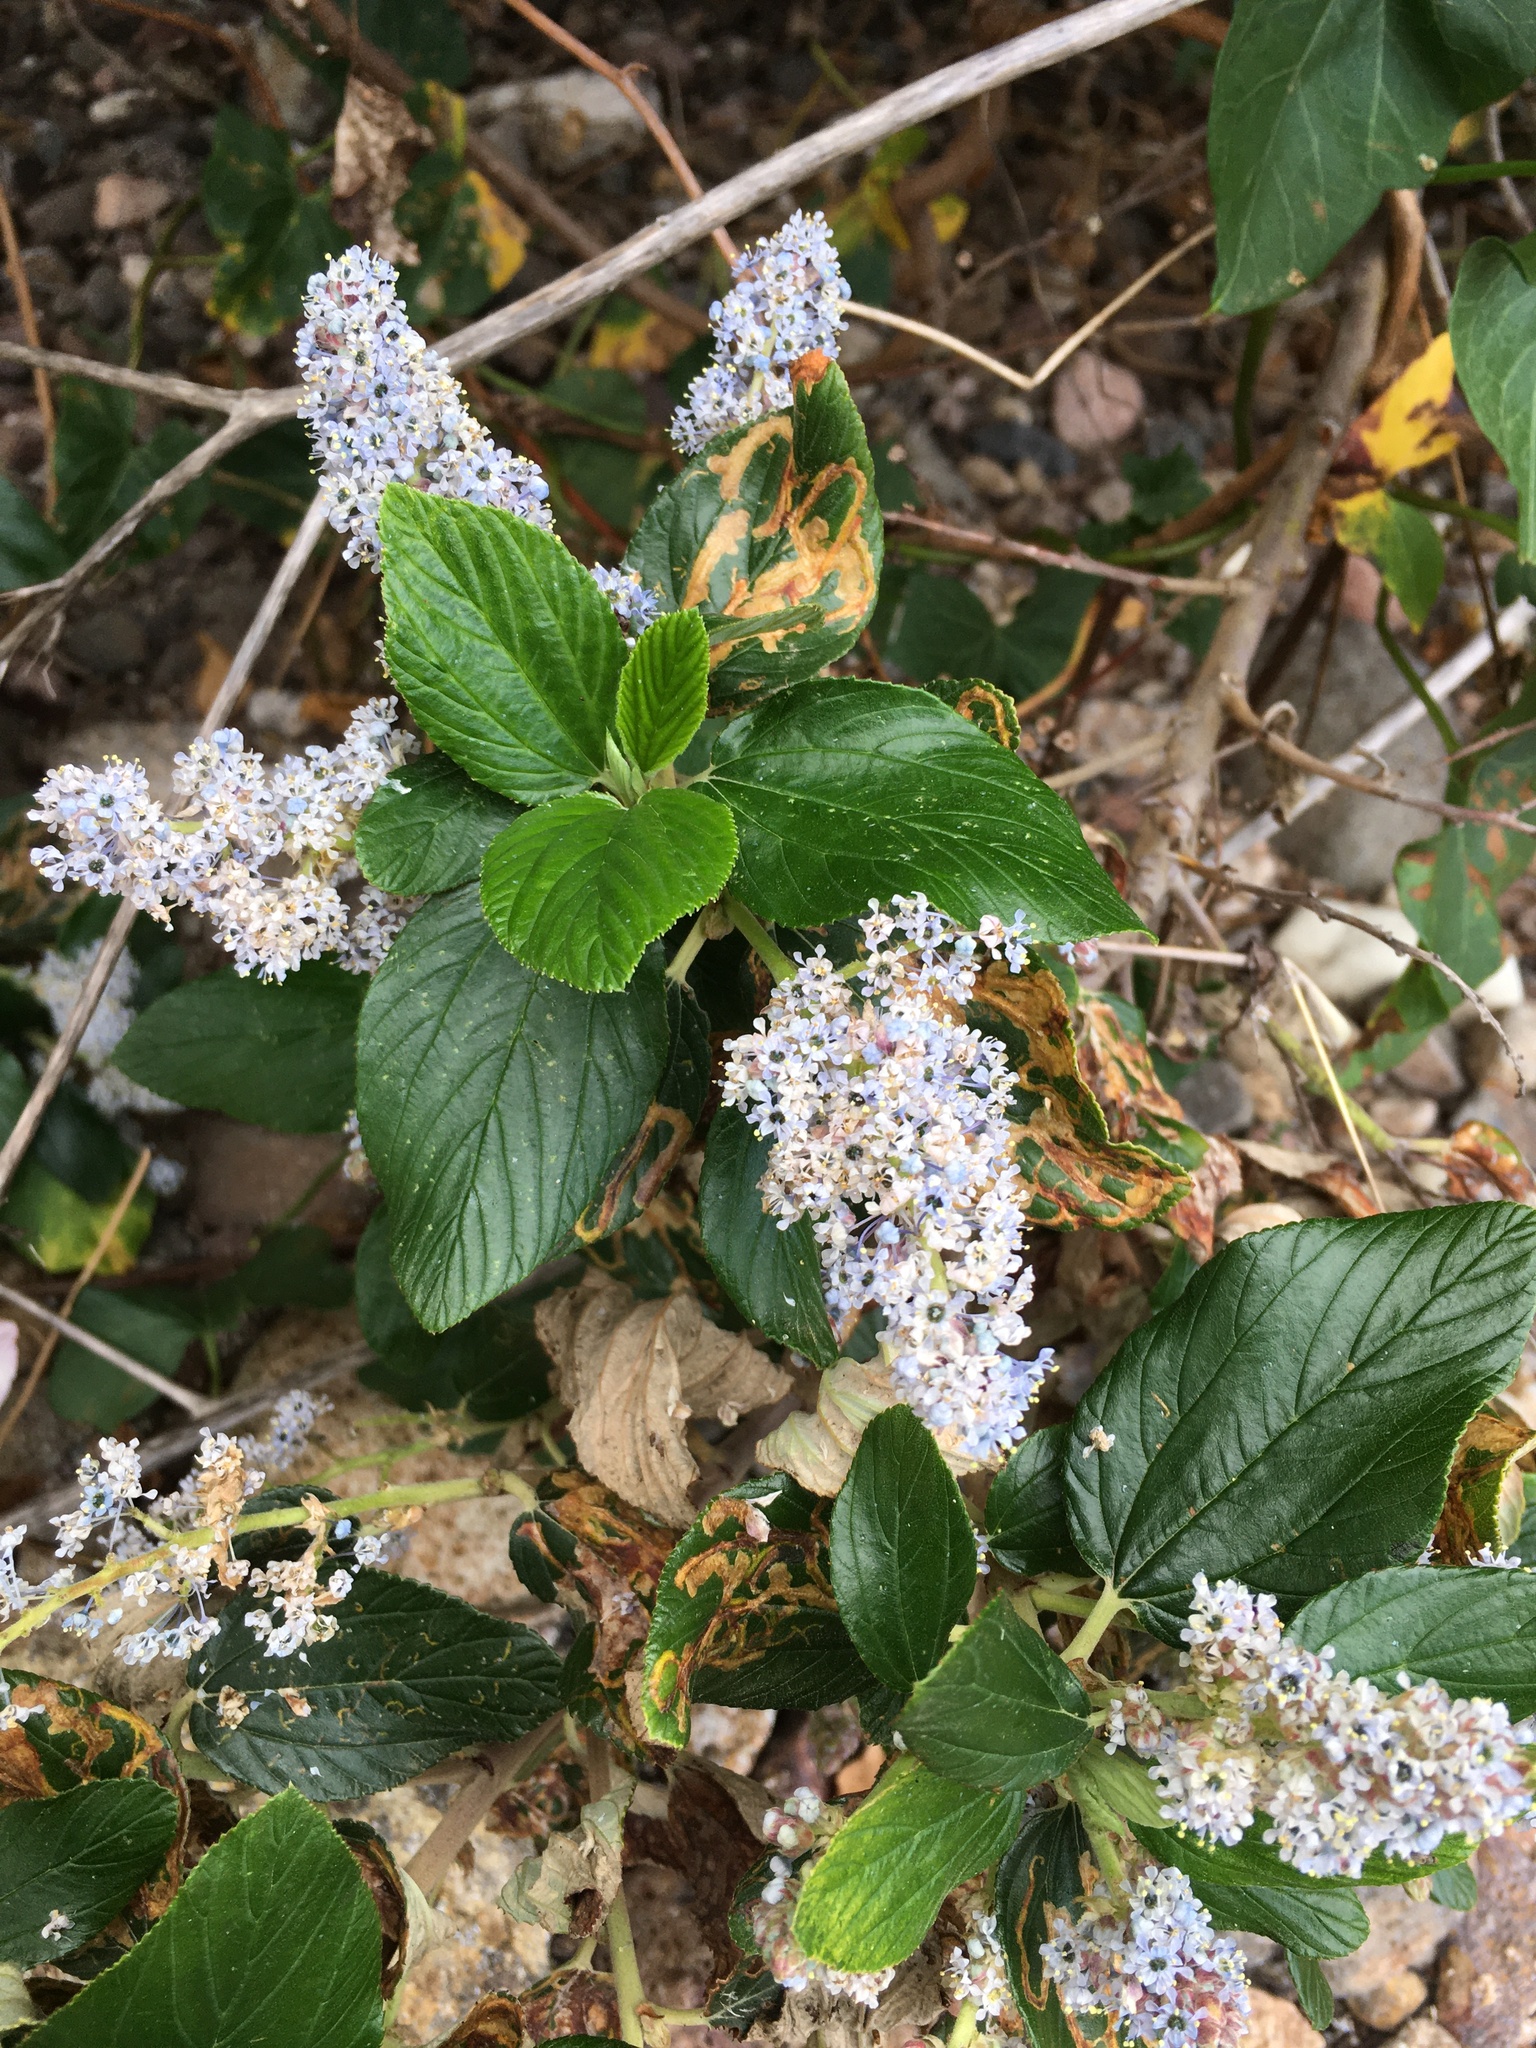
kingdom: Plantae
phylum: Tracheophyta
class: Magnoliopsida
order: Rosales
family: Rhamnaceae
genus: Ceanothus
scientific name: Ceanothus arboreus
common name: Catalina mountain-lilac
